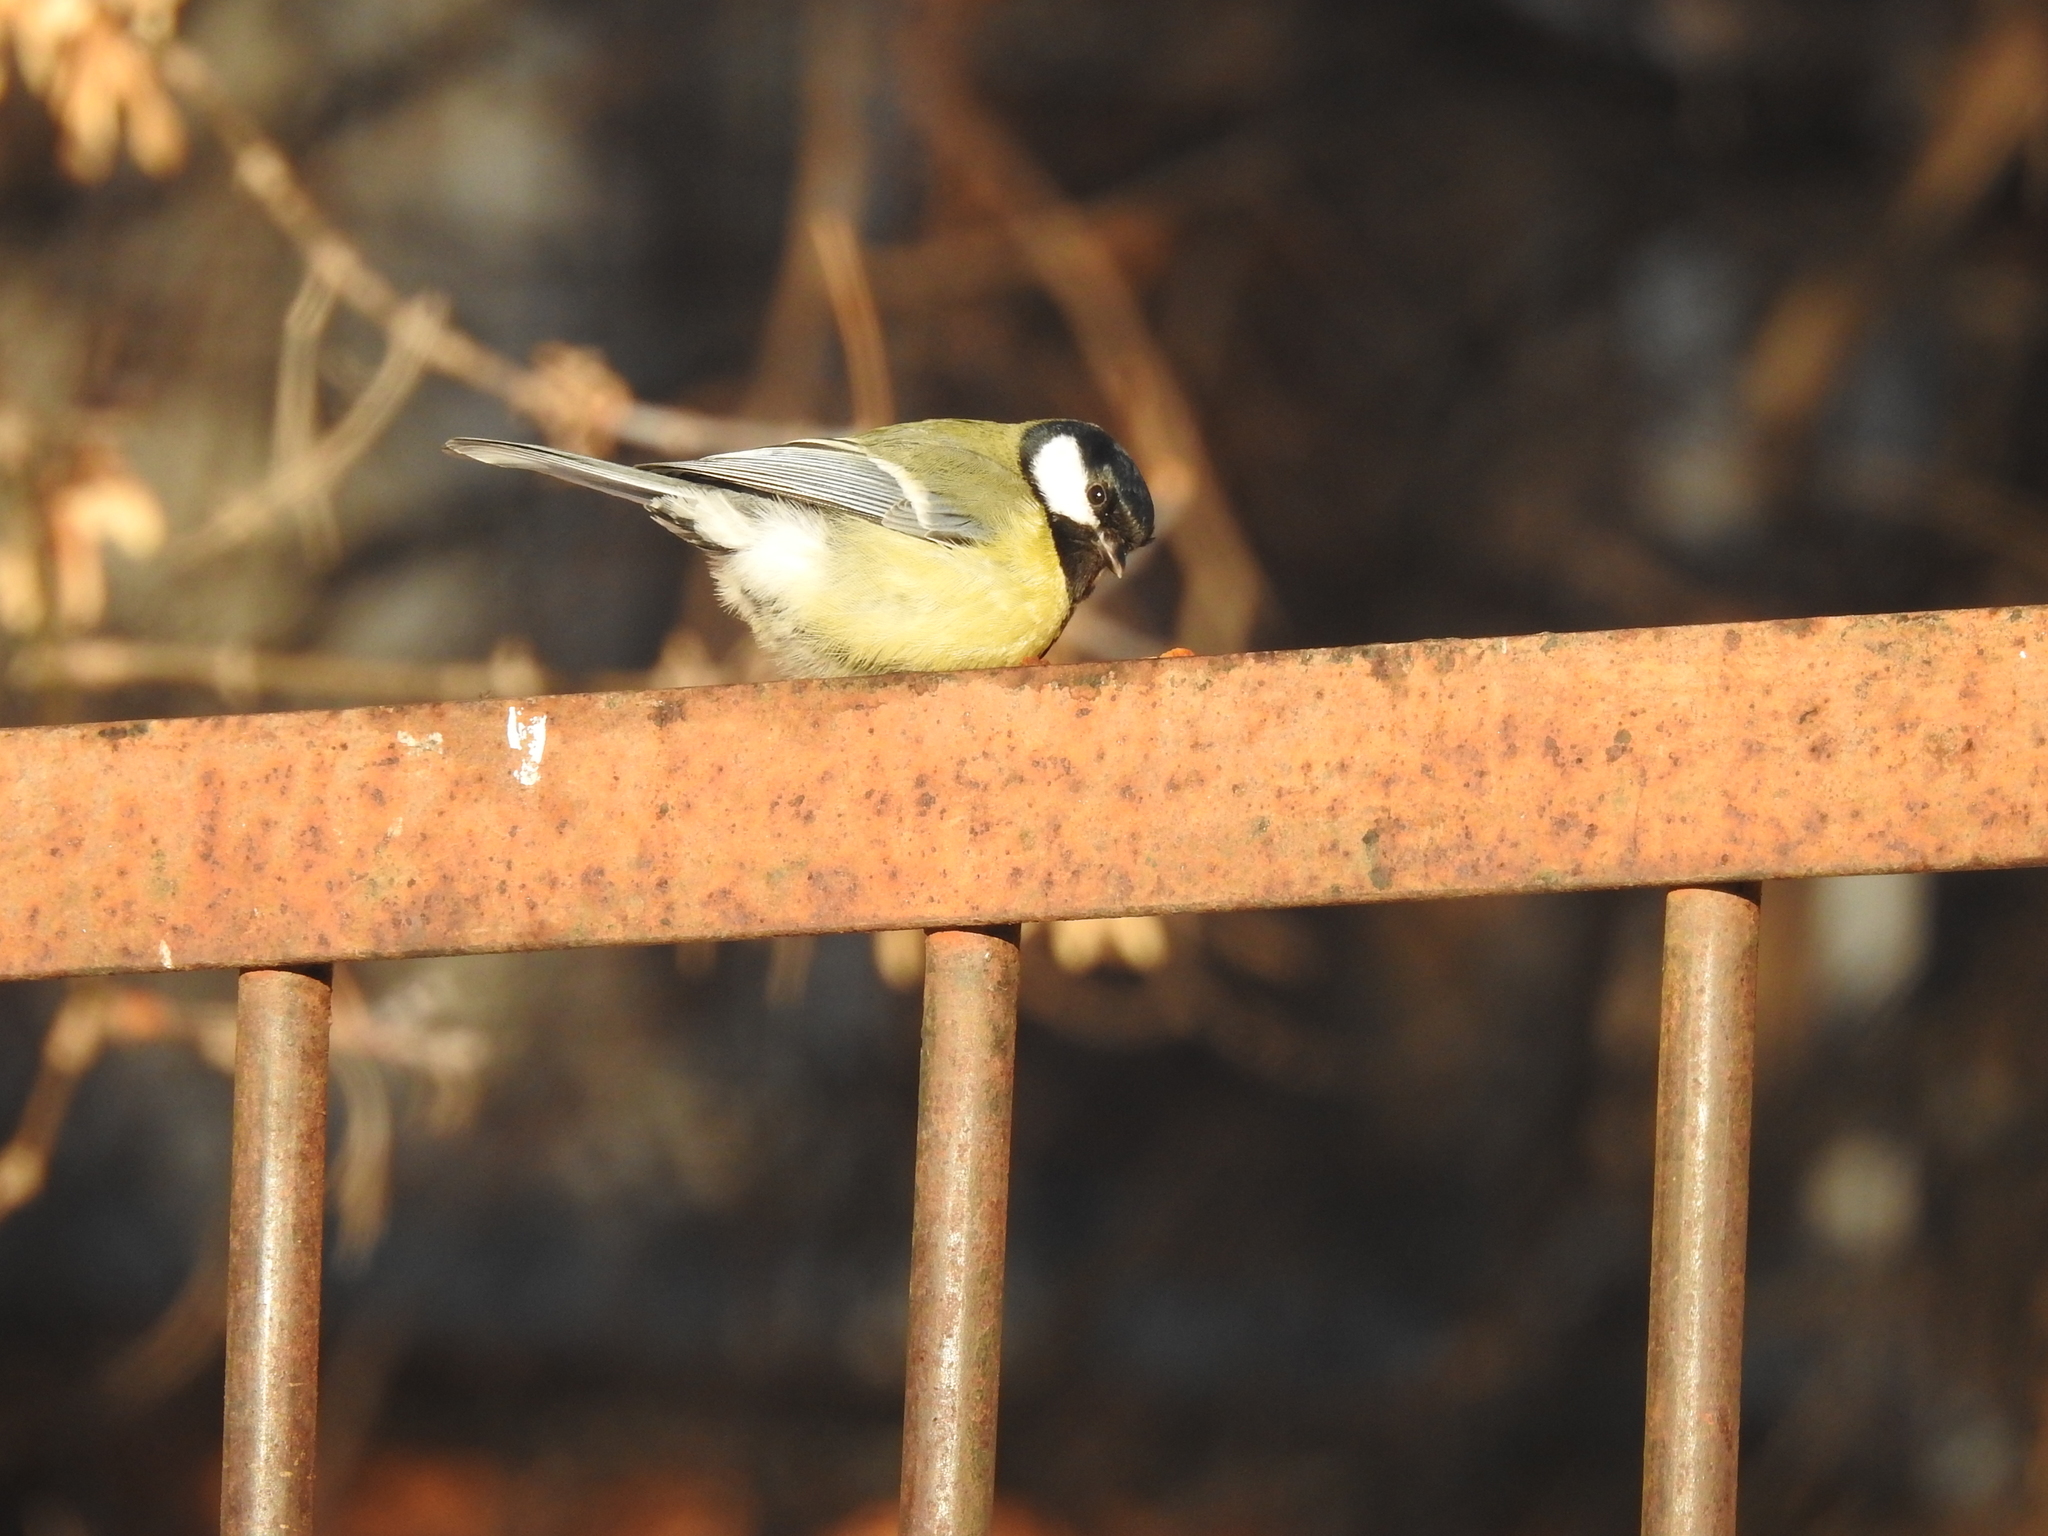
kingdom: Animalia
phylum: Chordata
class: Aves
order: Passeriformes
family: Paridae
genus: Parus
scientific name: Parus major
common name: Great tit
